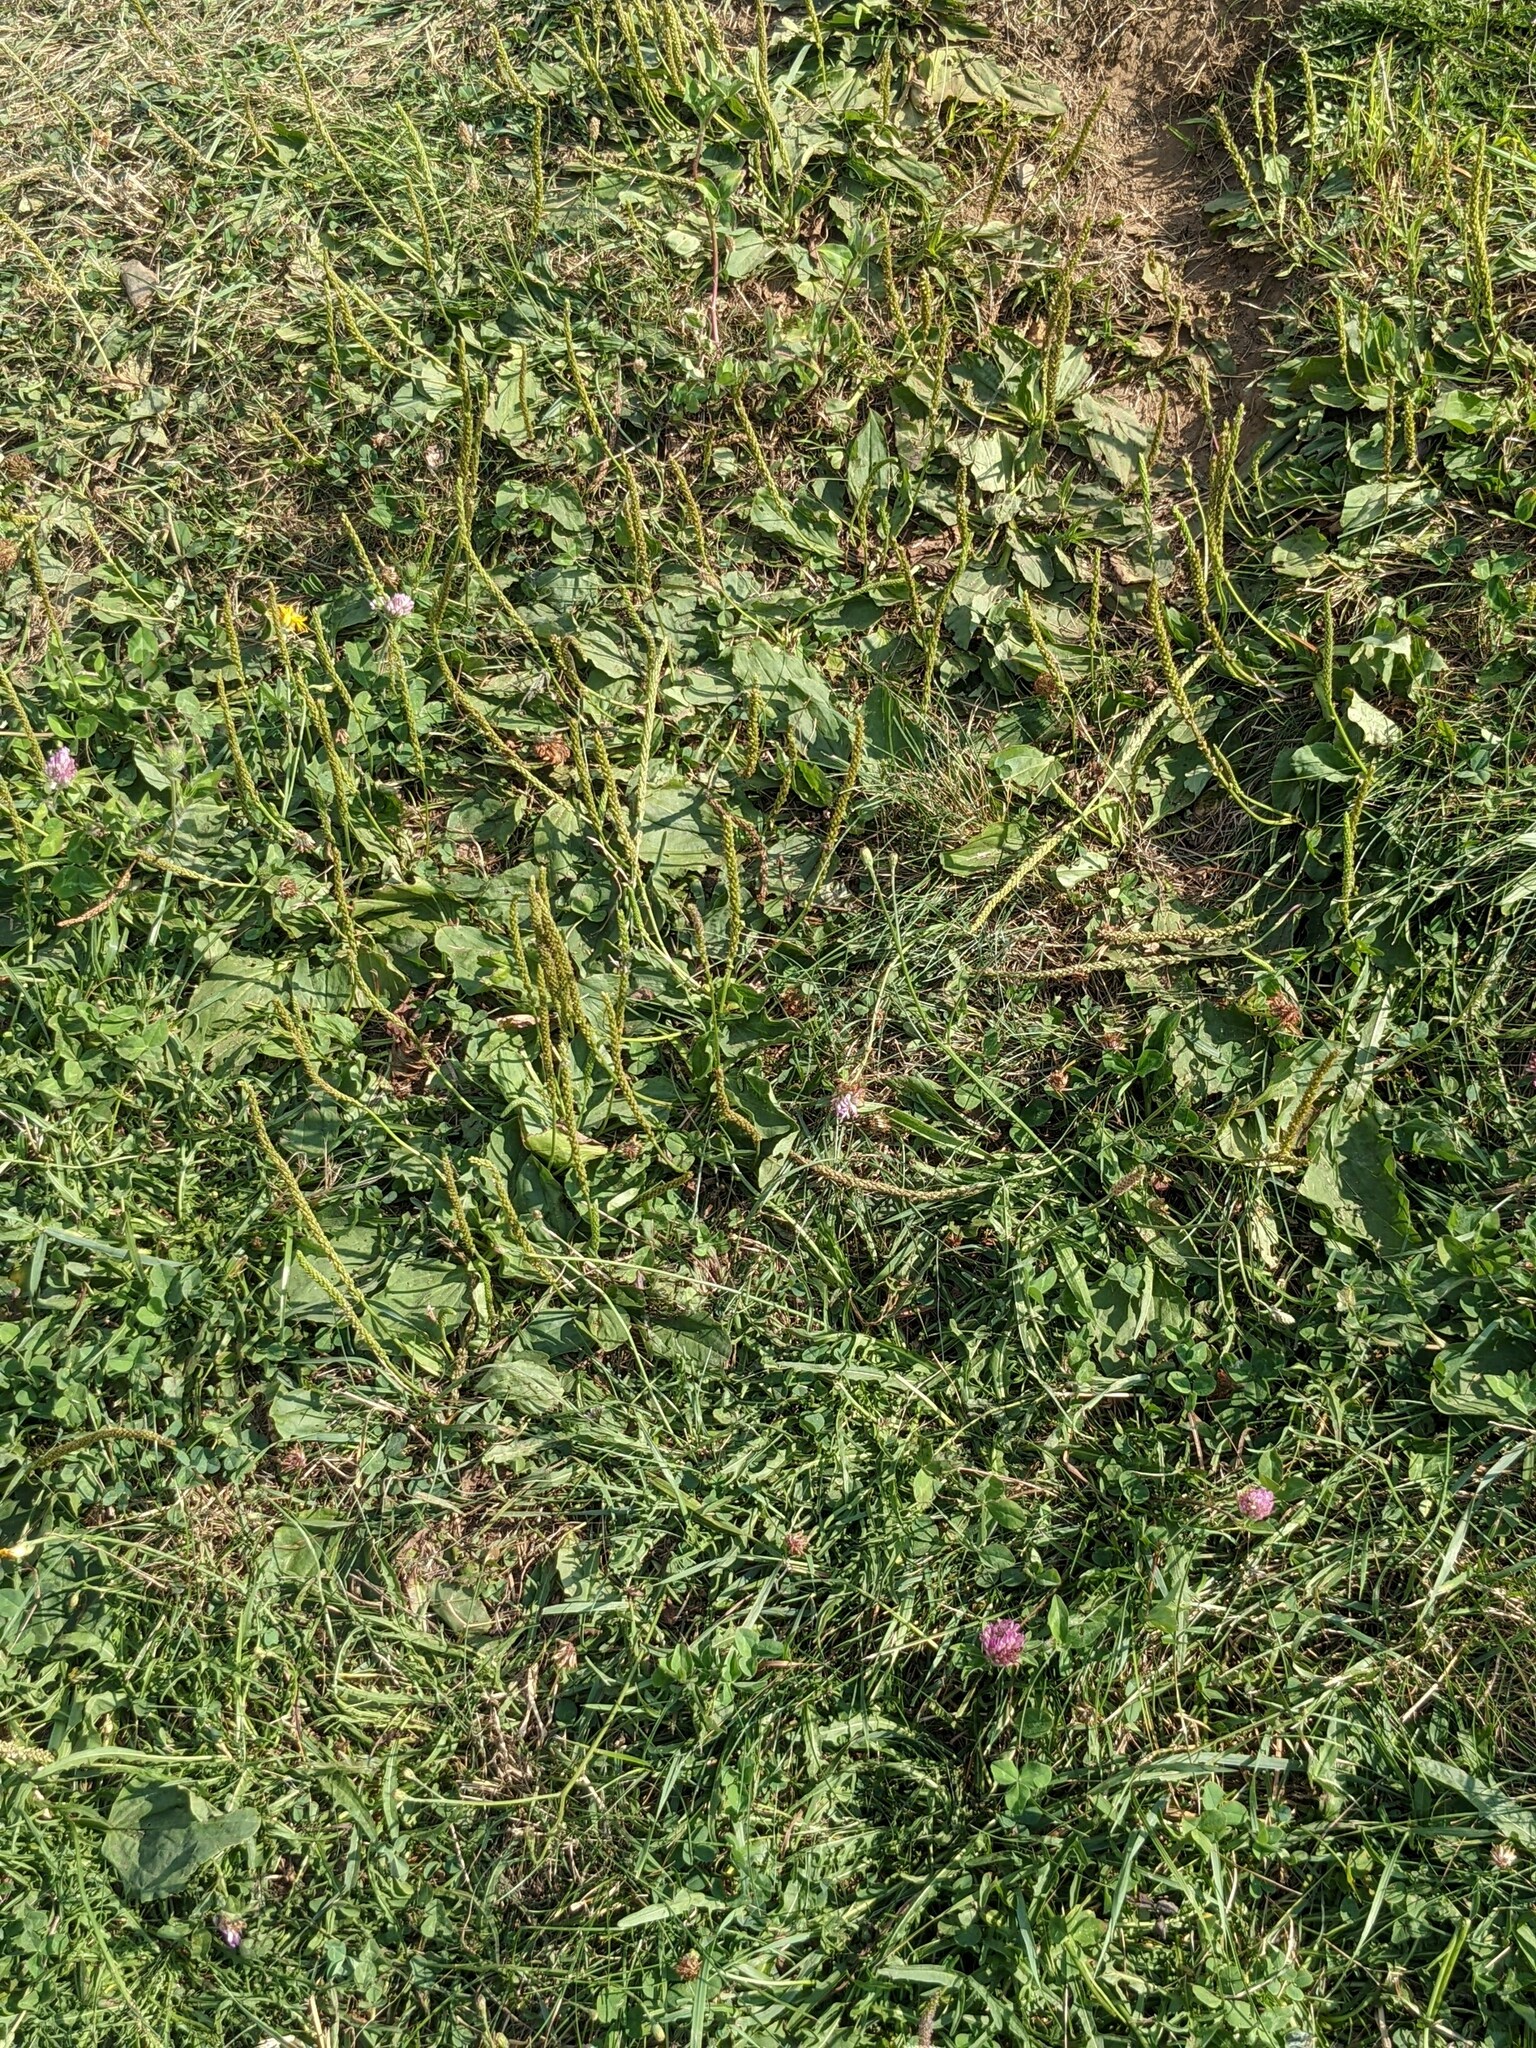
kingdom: Plantae
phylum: Tracheophyta
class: Magnoliopsida
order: Lamiales
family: Plantaginaceae
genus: Plantago
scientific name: Plantago major
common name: Common plantain
